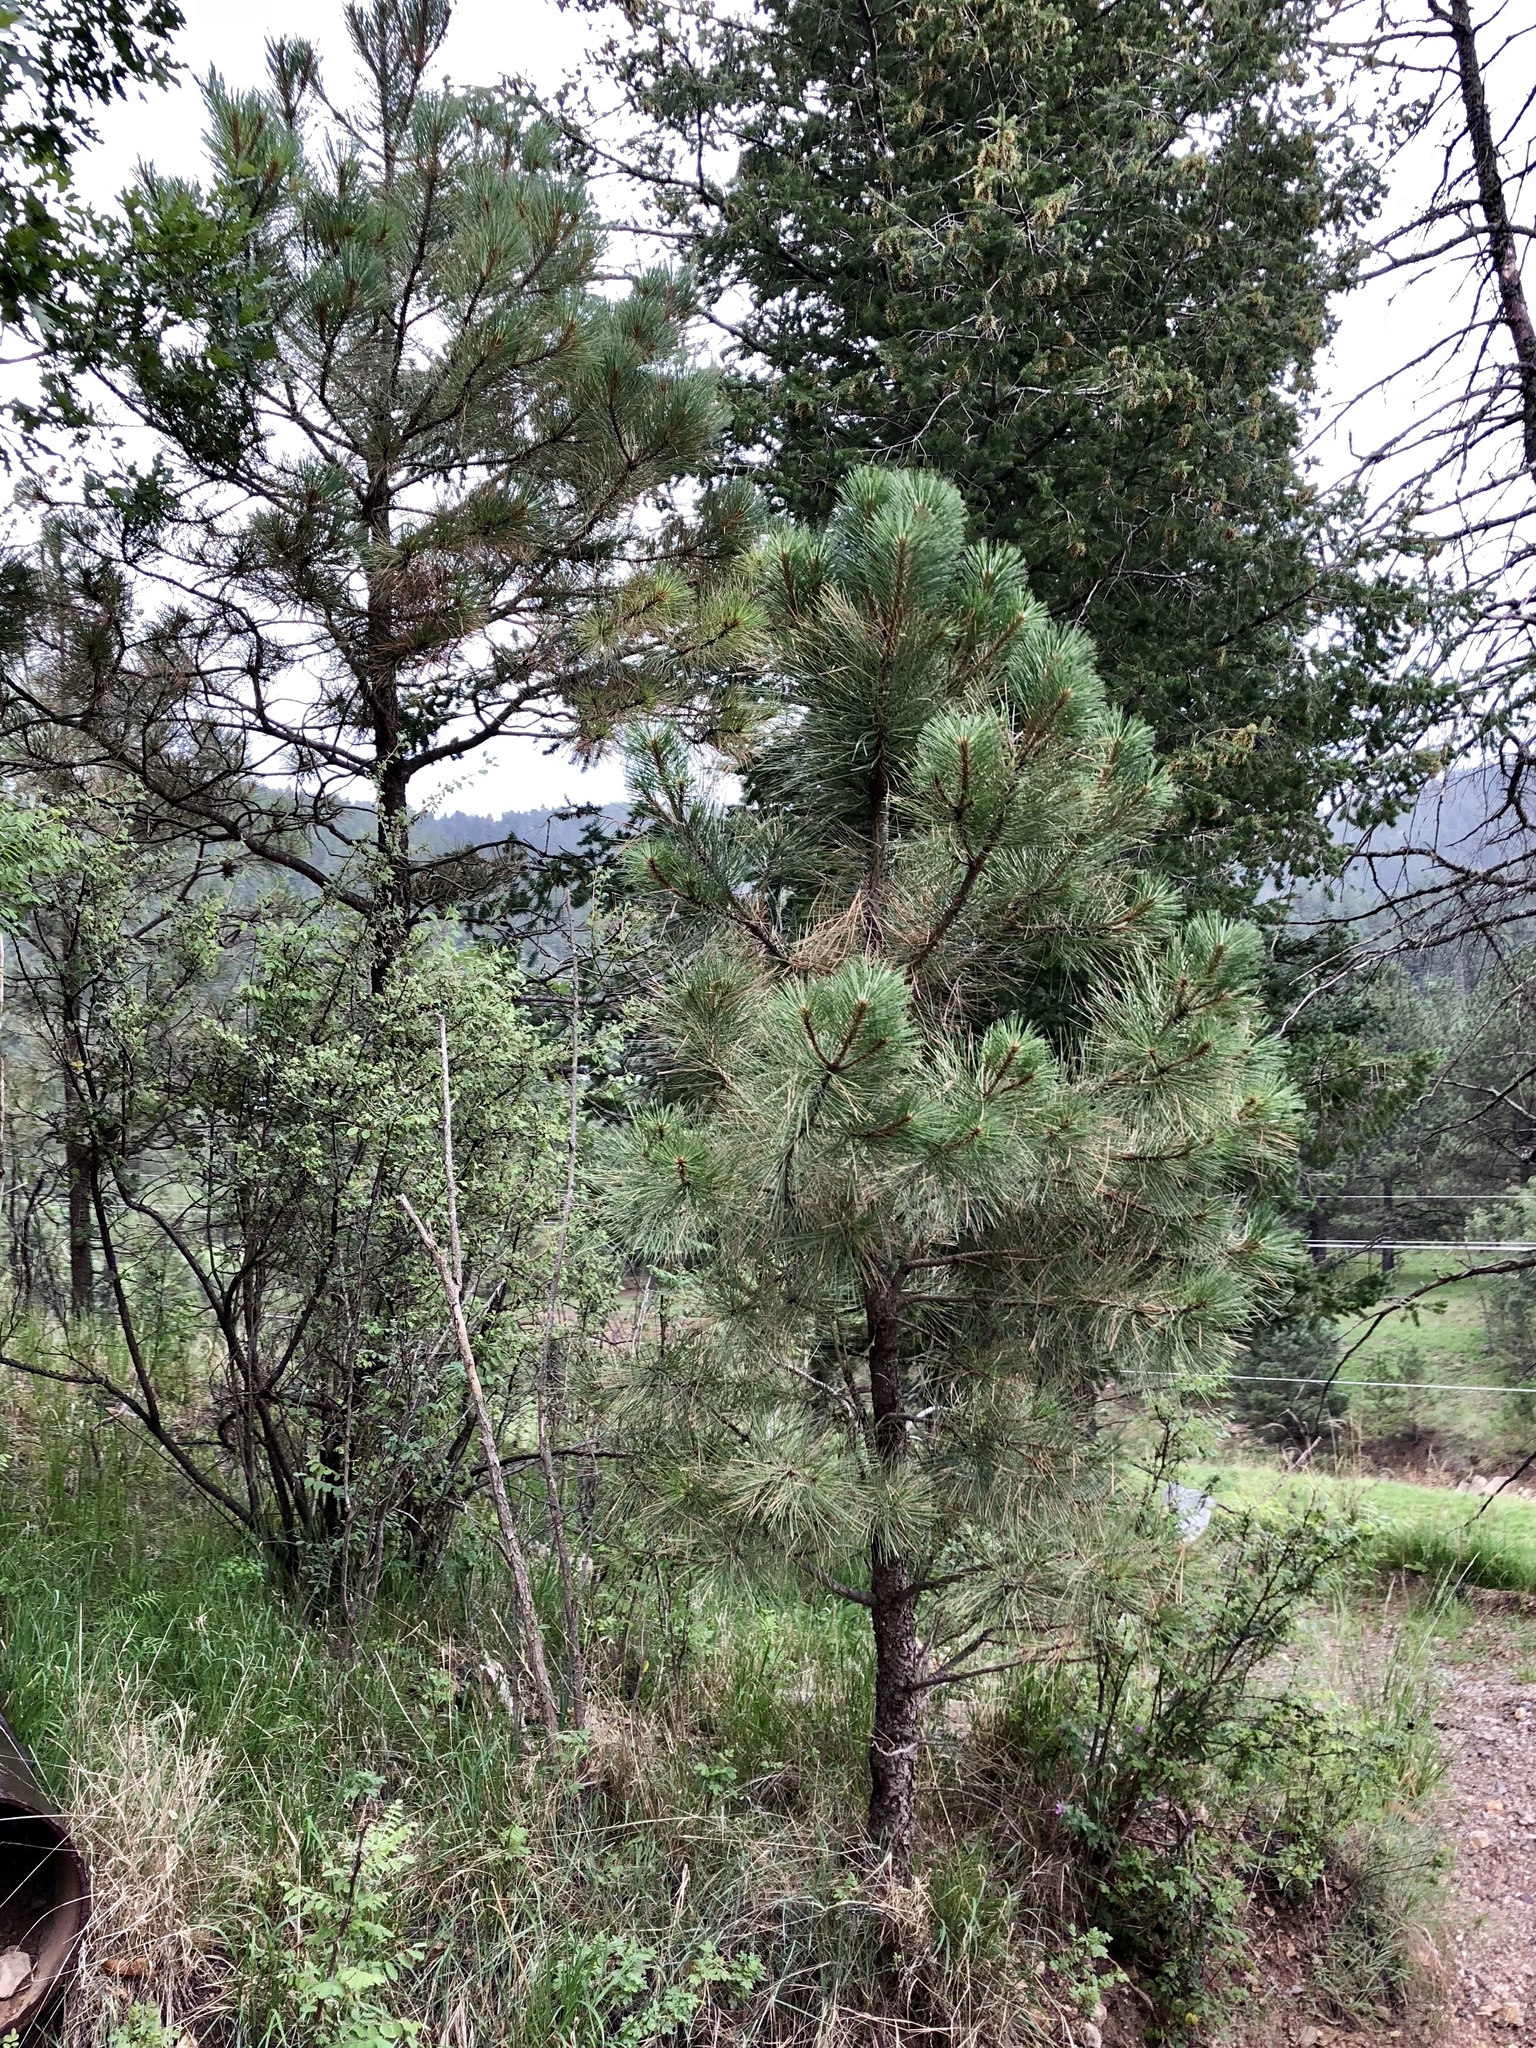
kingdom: Plantae
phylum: Tracheophyta
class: Pinopsida
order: Pinales
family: Pinaceae
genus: Pinus
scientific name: Pinus ponderosa
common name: Western yellow-pine
